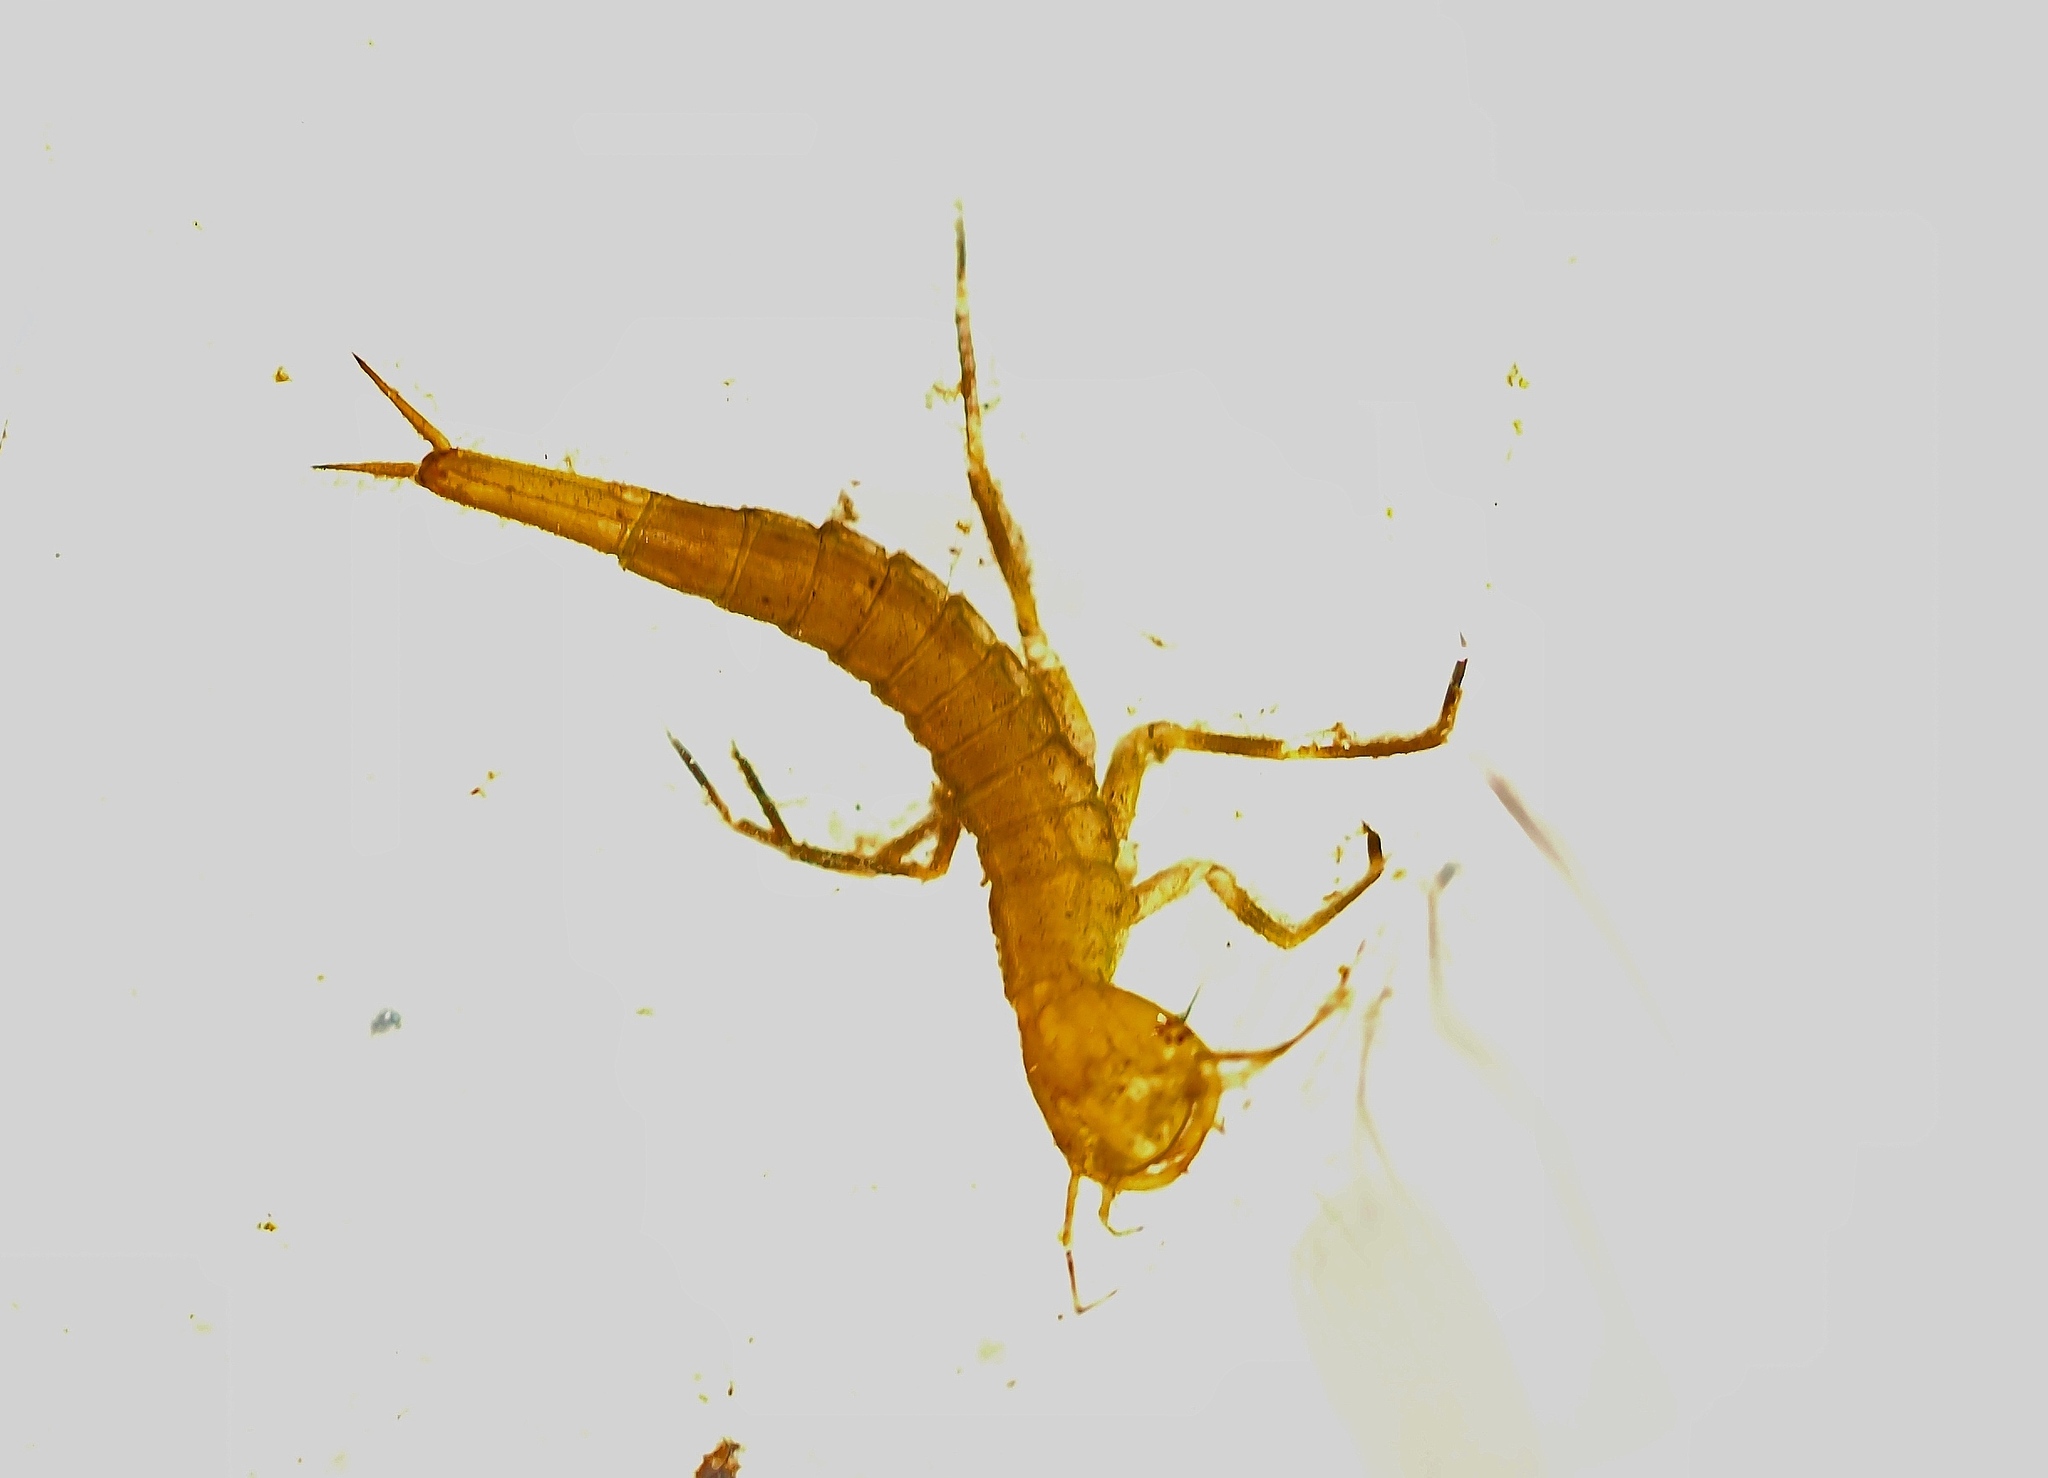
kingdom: Animalia
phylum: Arthropoda
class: Insecta
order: Coleoptera
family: Dytiscidae
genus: Dytiscus
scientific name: Dytiscus
